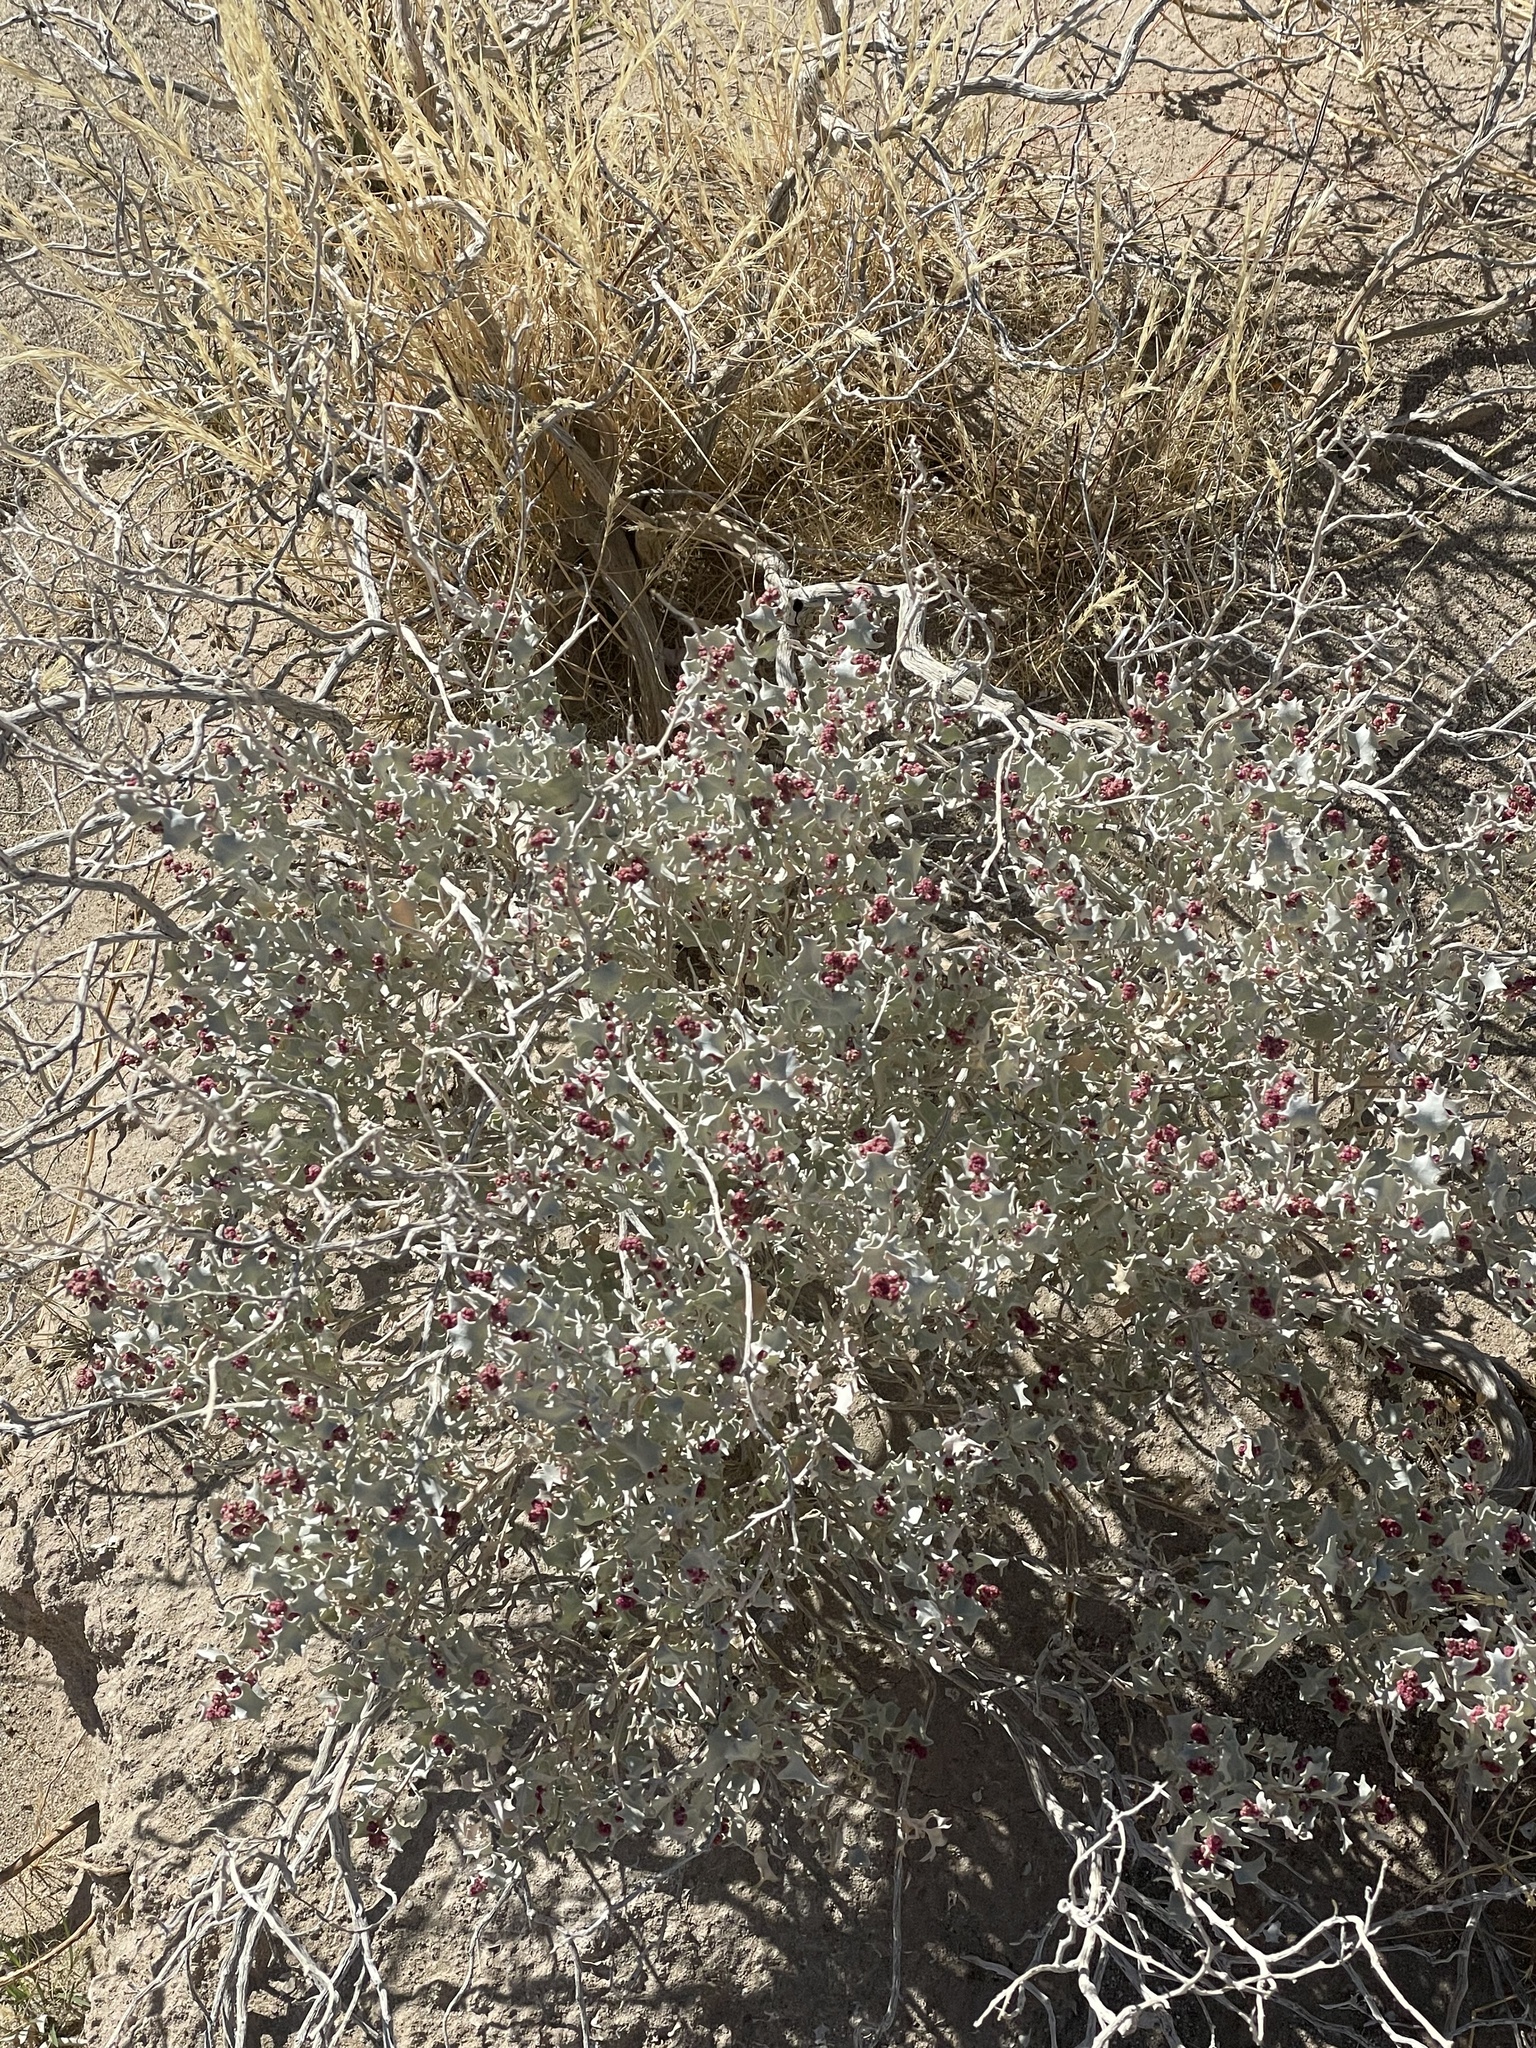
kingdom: Plantae
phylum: Tracheophyta
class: Magnoliopsida
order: Caryophyllales
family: Amaranthaceae
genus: Atriplex
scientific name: Atriplex hymenelytra
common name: Desert-holly
